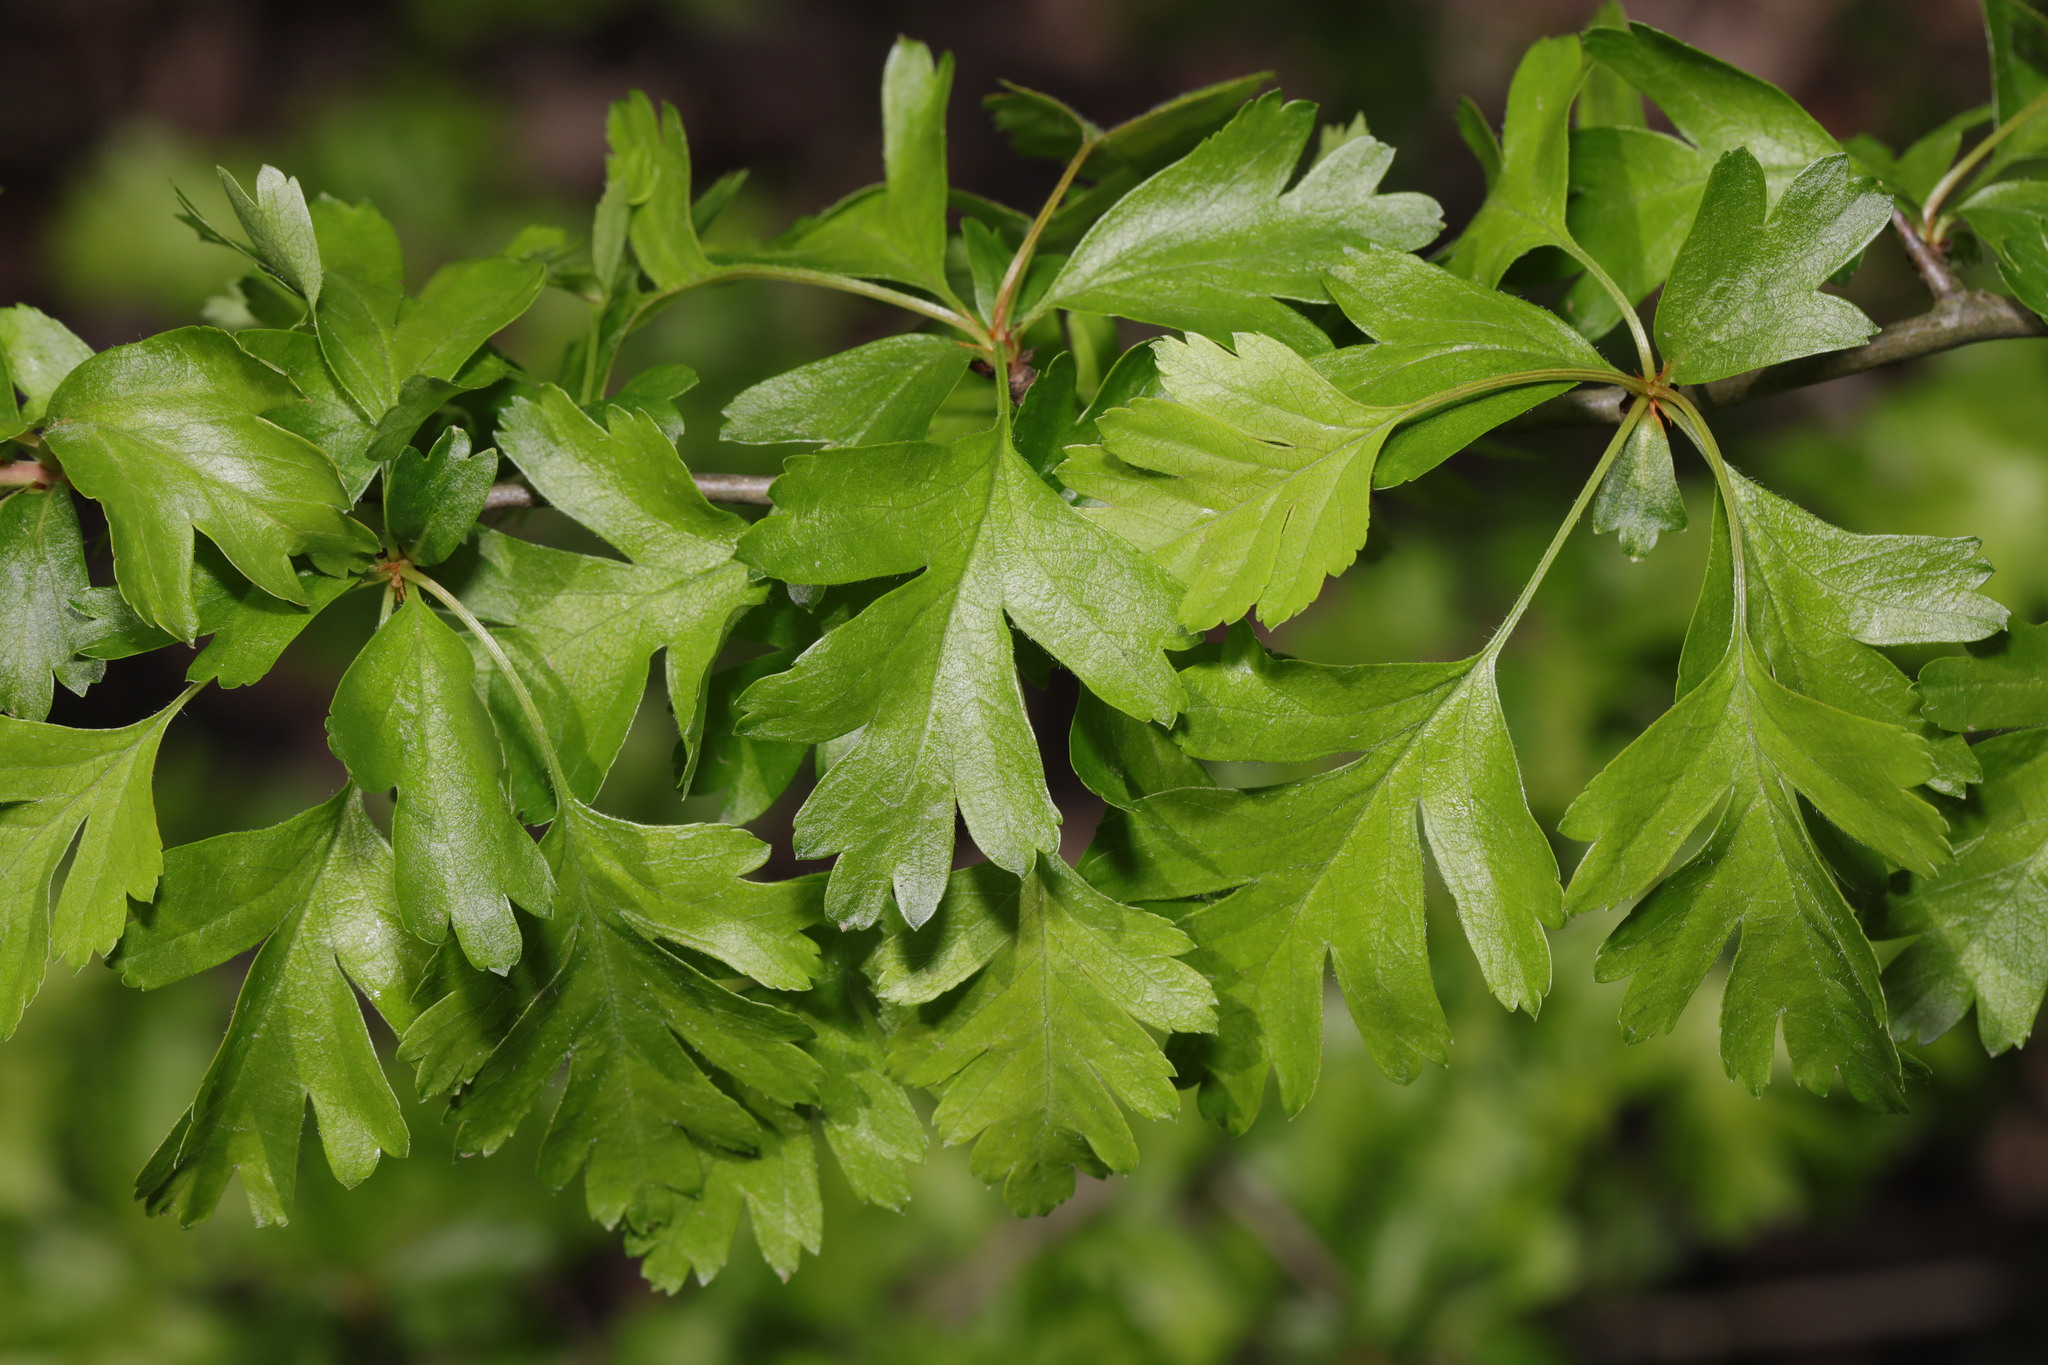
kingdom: Plantae
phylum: Tracheophyta
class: Magnoliopsida
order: Rosales
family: Rosaceae
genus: Crataegus
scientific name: Crataegus monogyna
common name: Hawthorn
